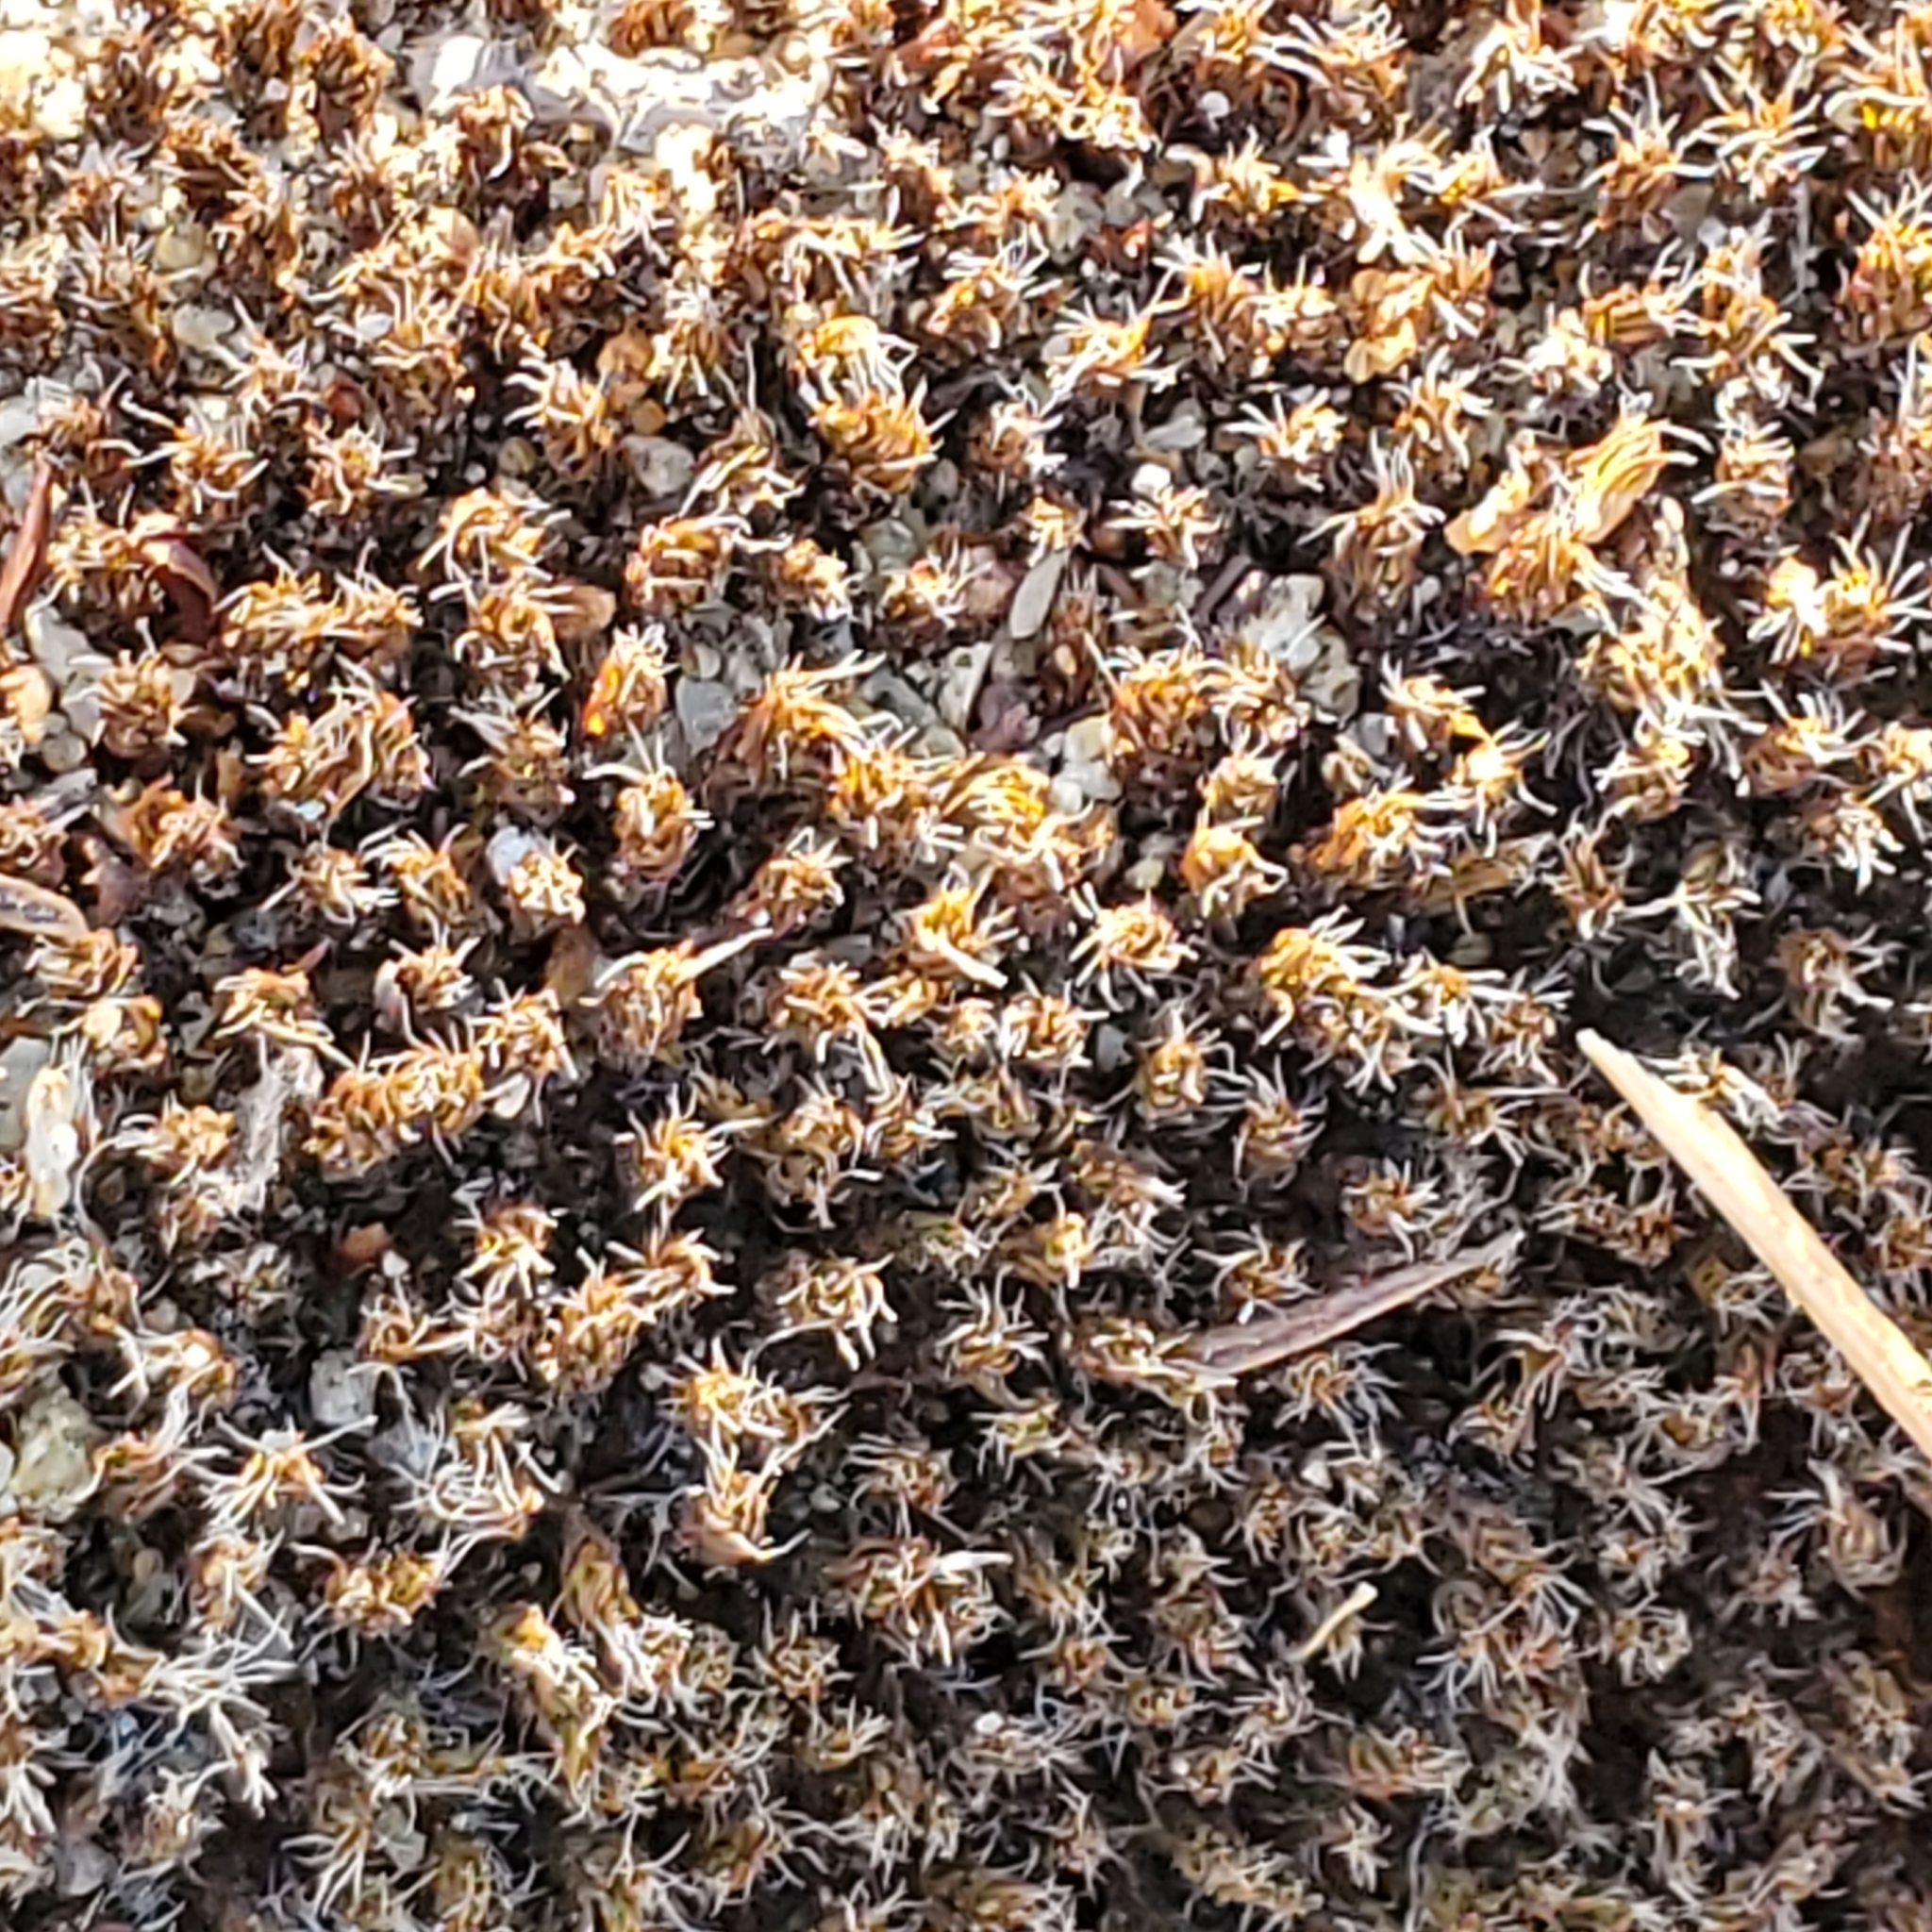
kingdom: Plantae
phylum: Bryophyta
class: Polytrichopsida
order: Polytrichales
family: Polytrichaceae
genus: Polytrichum
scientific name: Polytrichum piliferum
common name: Bristly haircap
